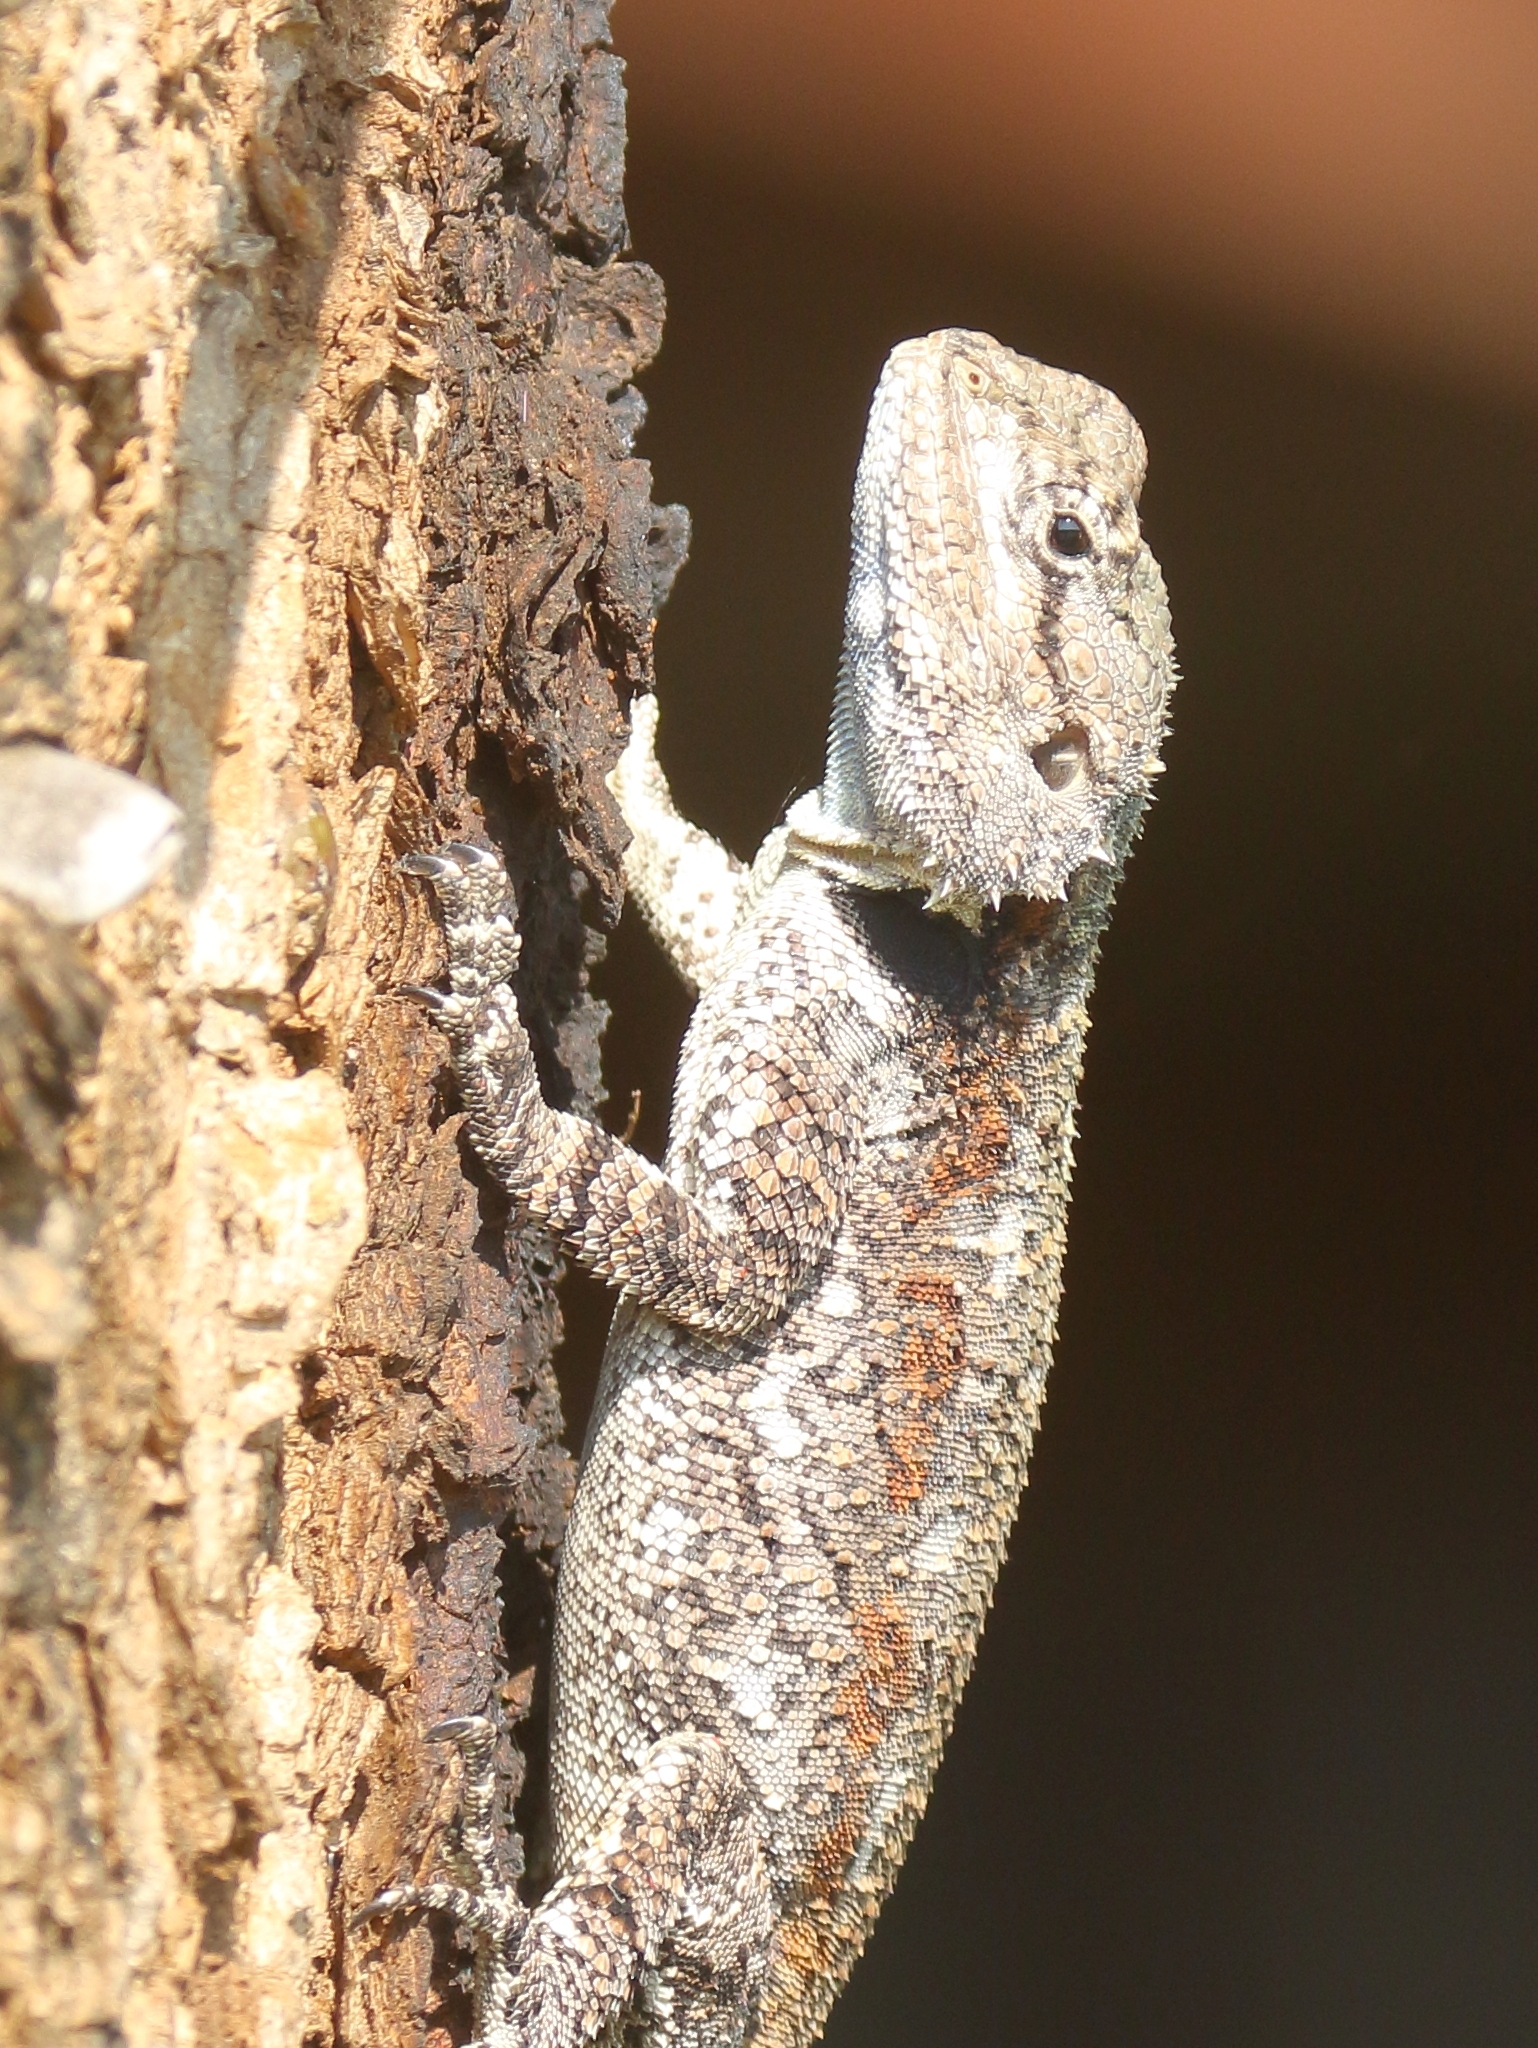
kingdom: Animalia
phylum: Chordata
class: Squamata
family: Agamidae
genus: Acanthocercus
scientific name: Acanthocercus atricollis
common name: Southern tree agama
